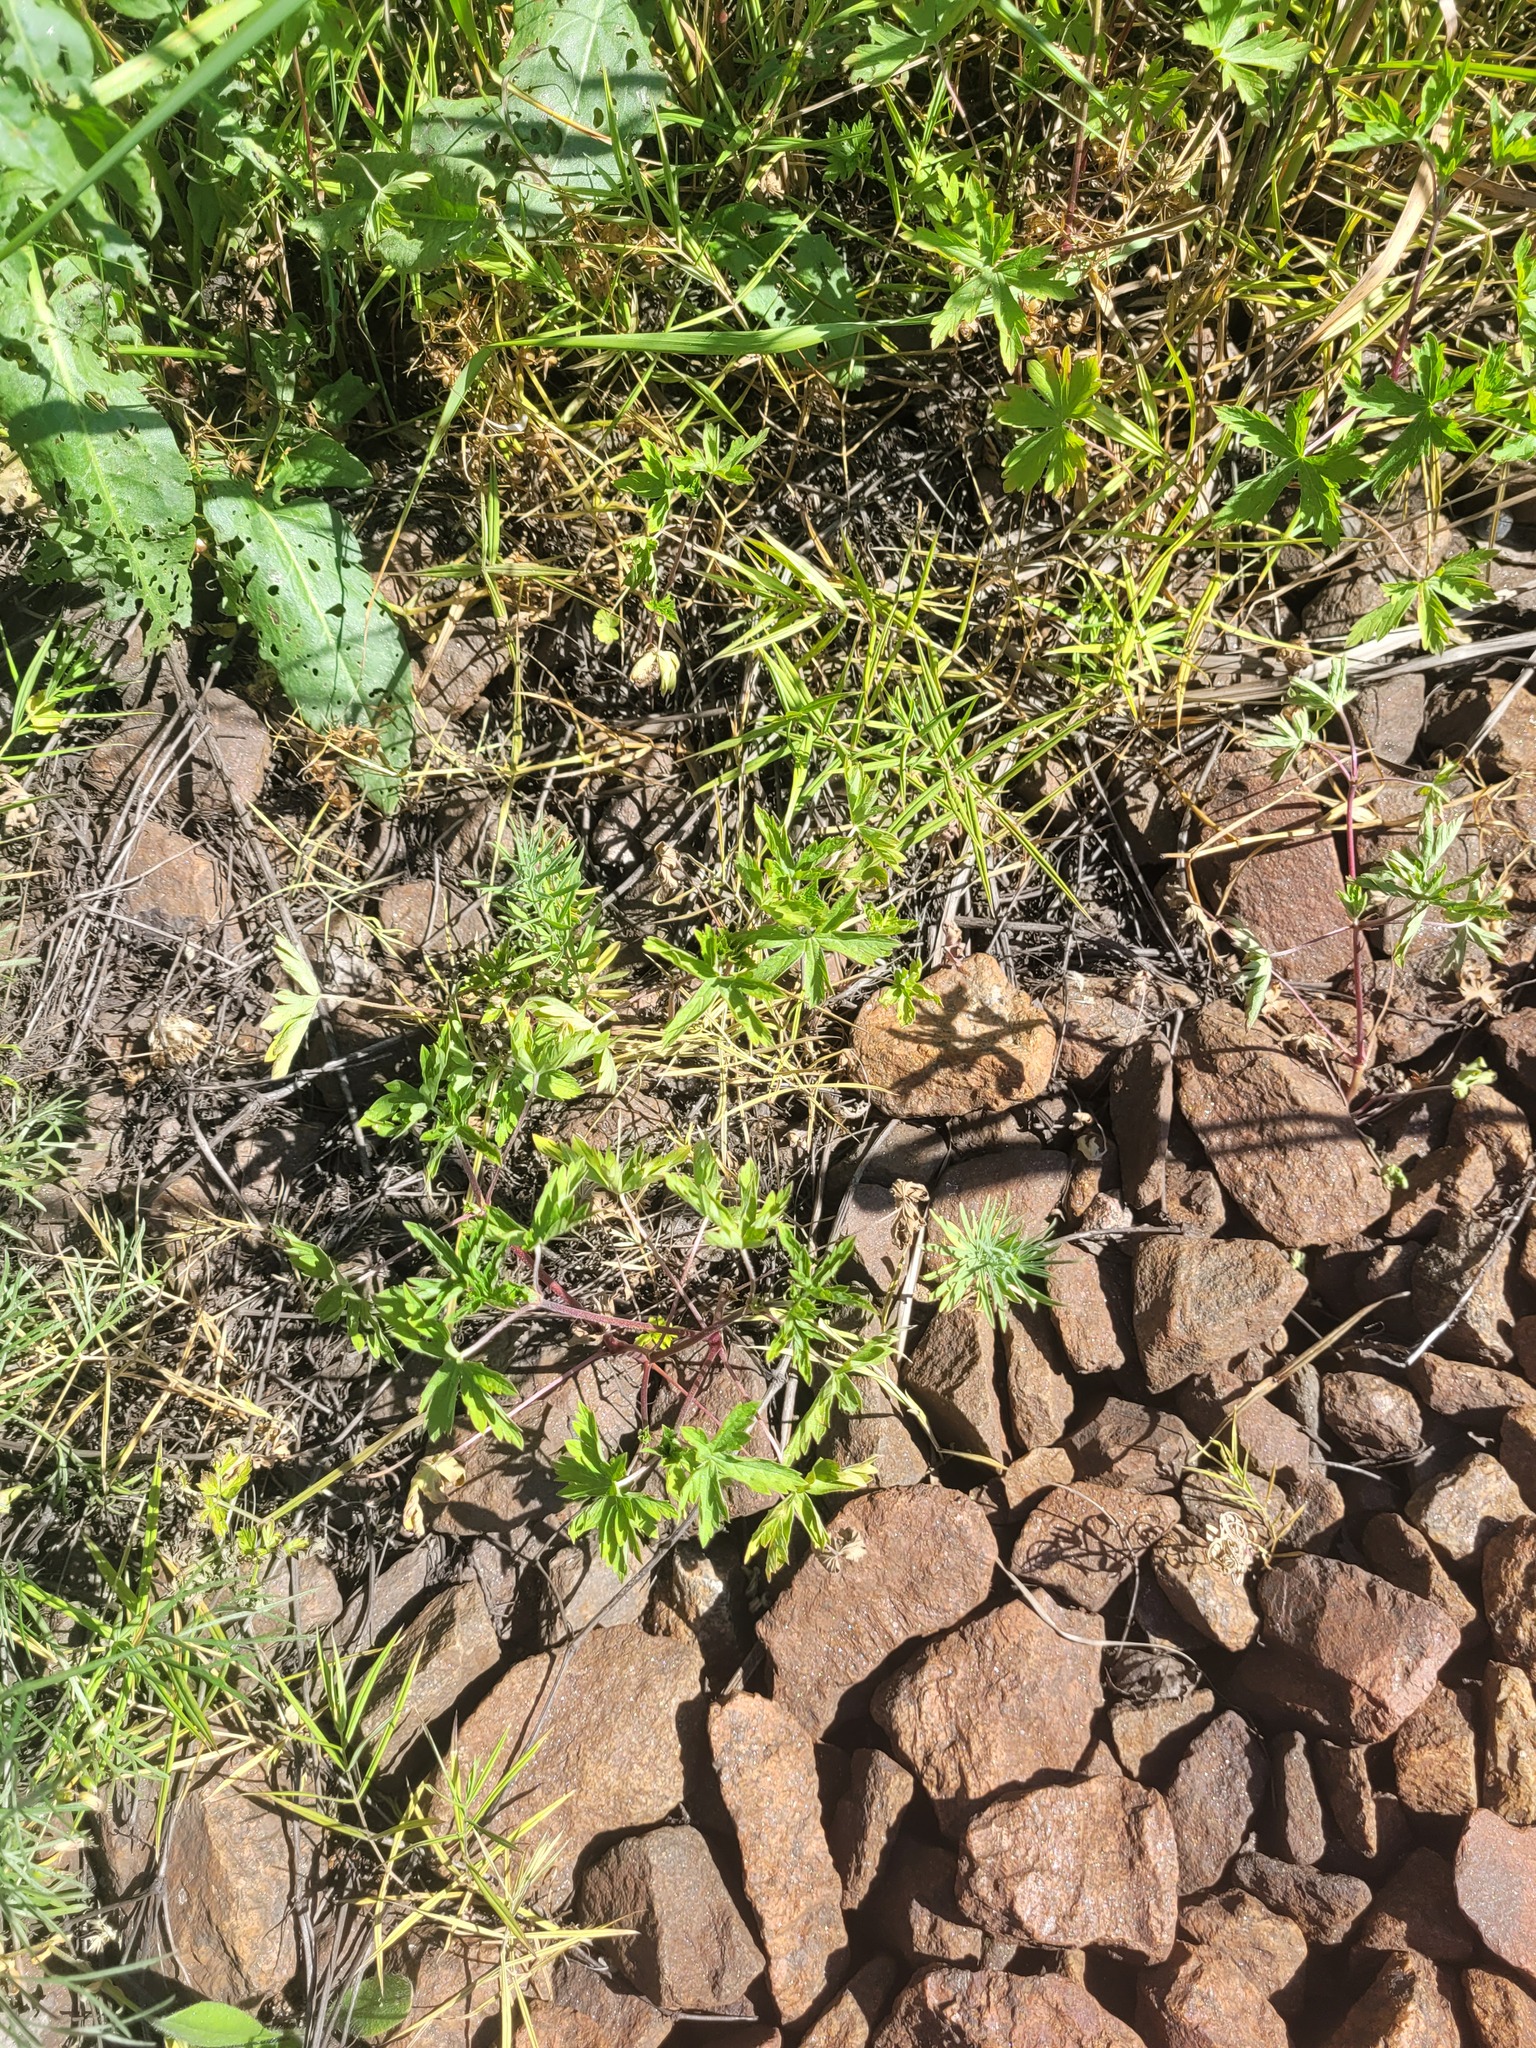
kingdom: Plantae
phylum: Tracheophyta
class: Magnoliopsida
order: Geraniales
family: Geraniaceae
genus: Geranium
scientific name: Geranium sibiricum
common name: Siberian crane's-bill
